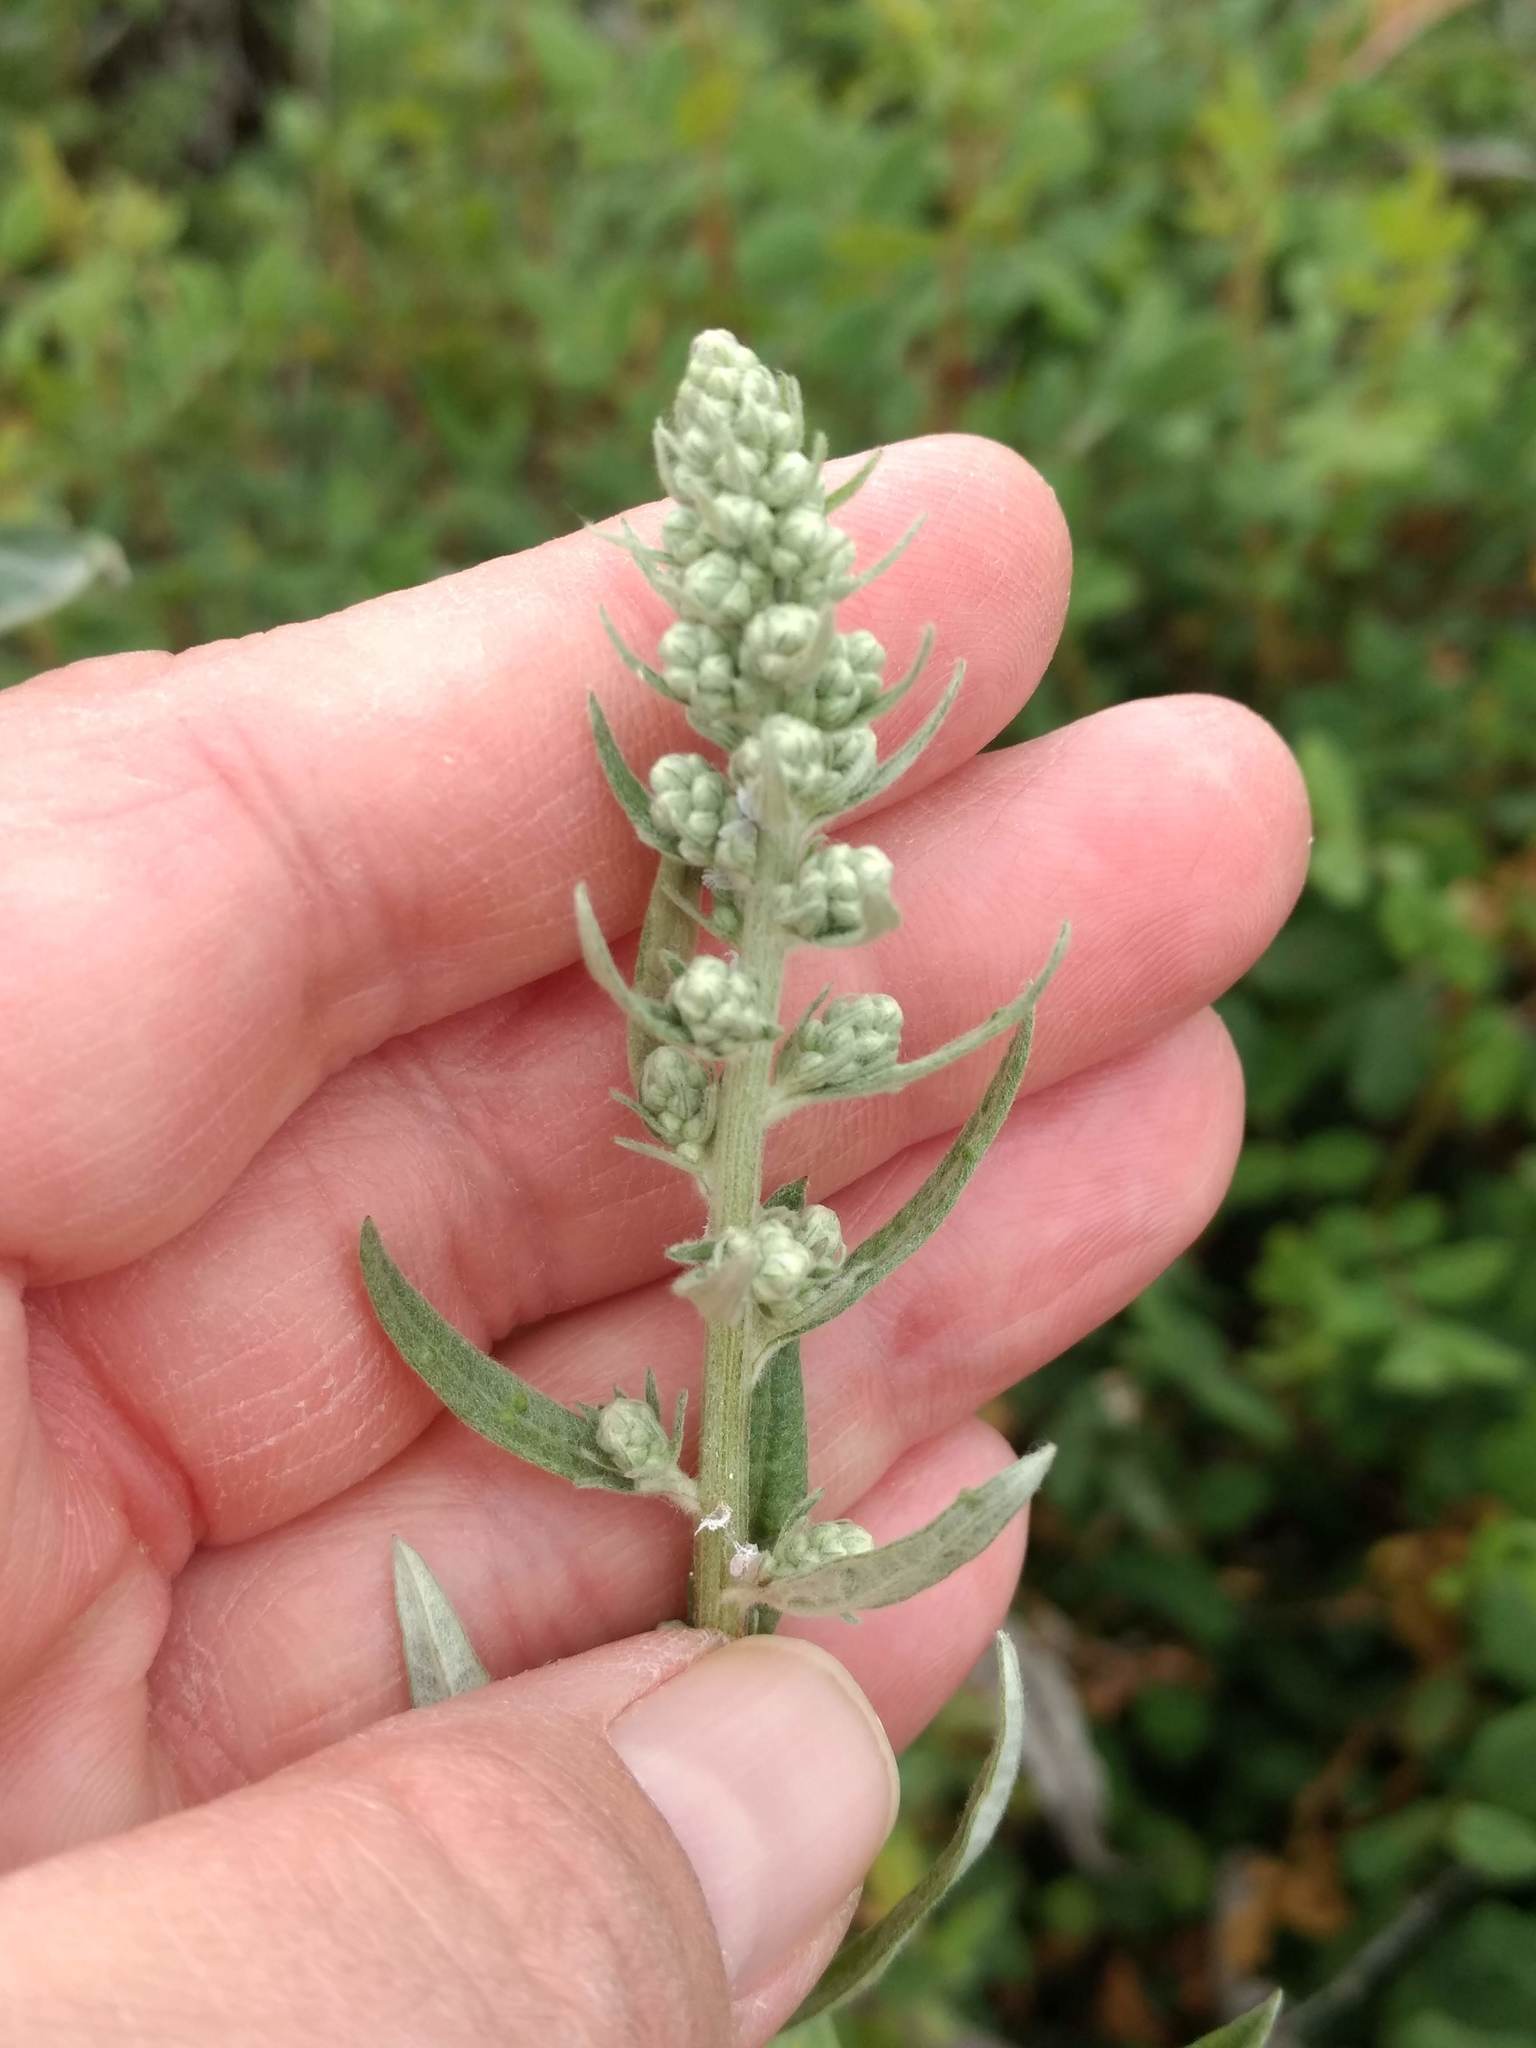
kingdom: Plantae
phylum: Tracheophyta
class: Magnoliopsida
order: Asterales
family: Asteraceae
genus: Artemisia
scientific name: Artemisia douglasiana
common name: Northwest mugwort
